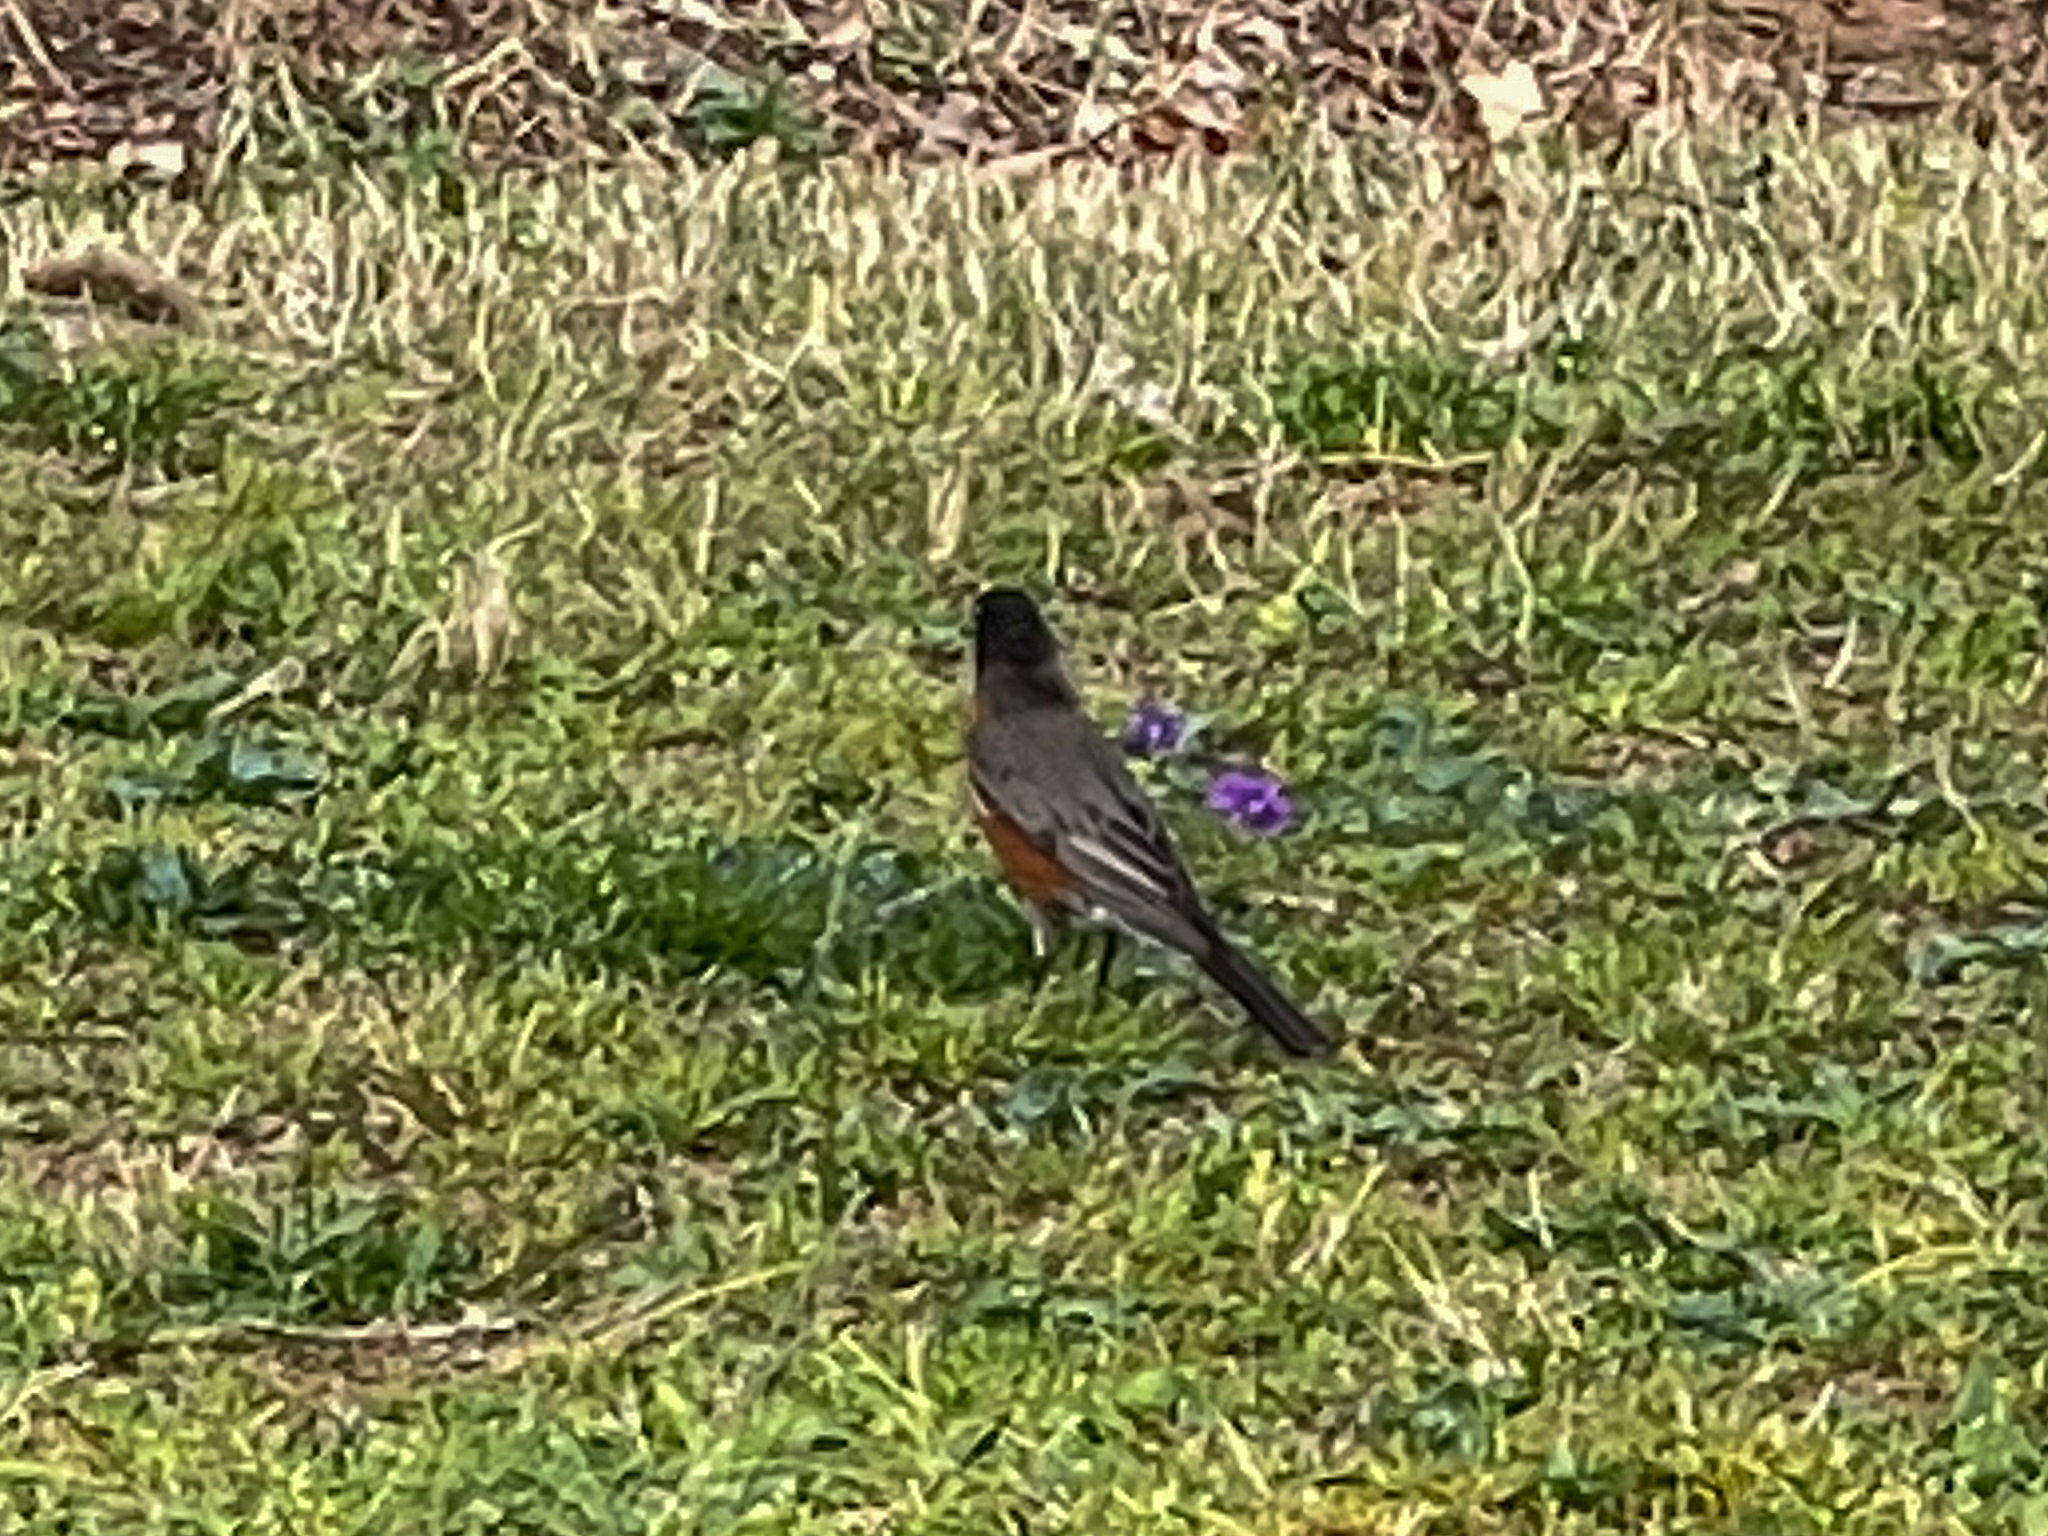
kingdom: Animalia
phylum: Chordata
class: Aves
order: Passeriformes
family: Turdidae
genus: Turdus
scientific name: Turdus migratorius
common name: American robin
